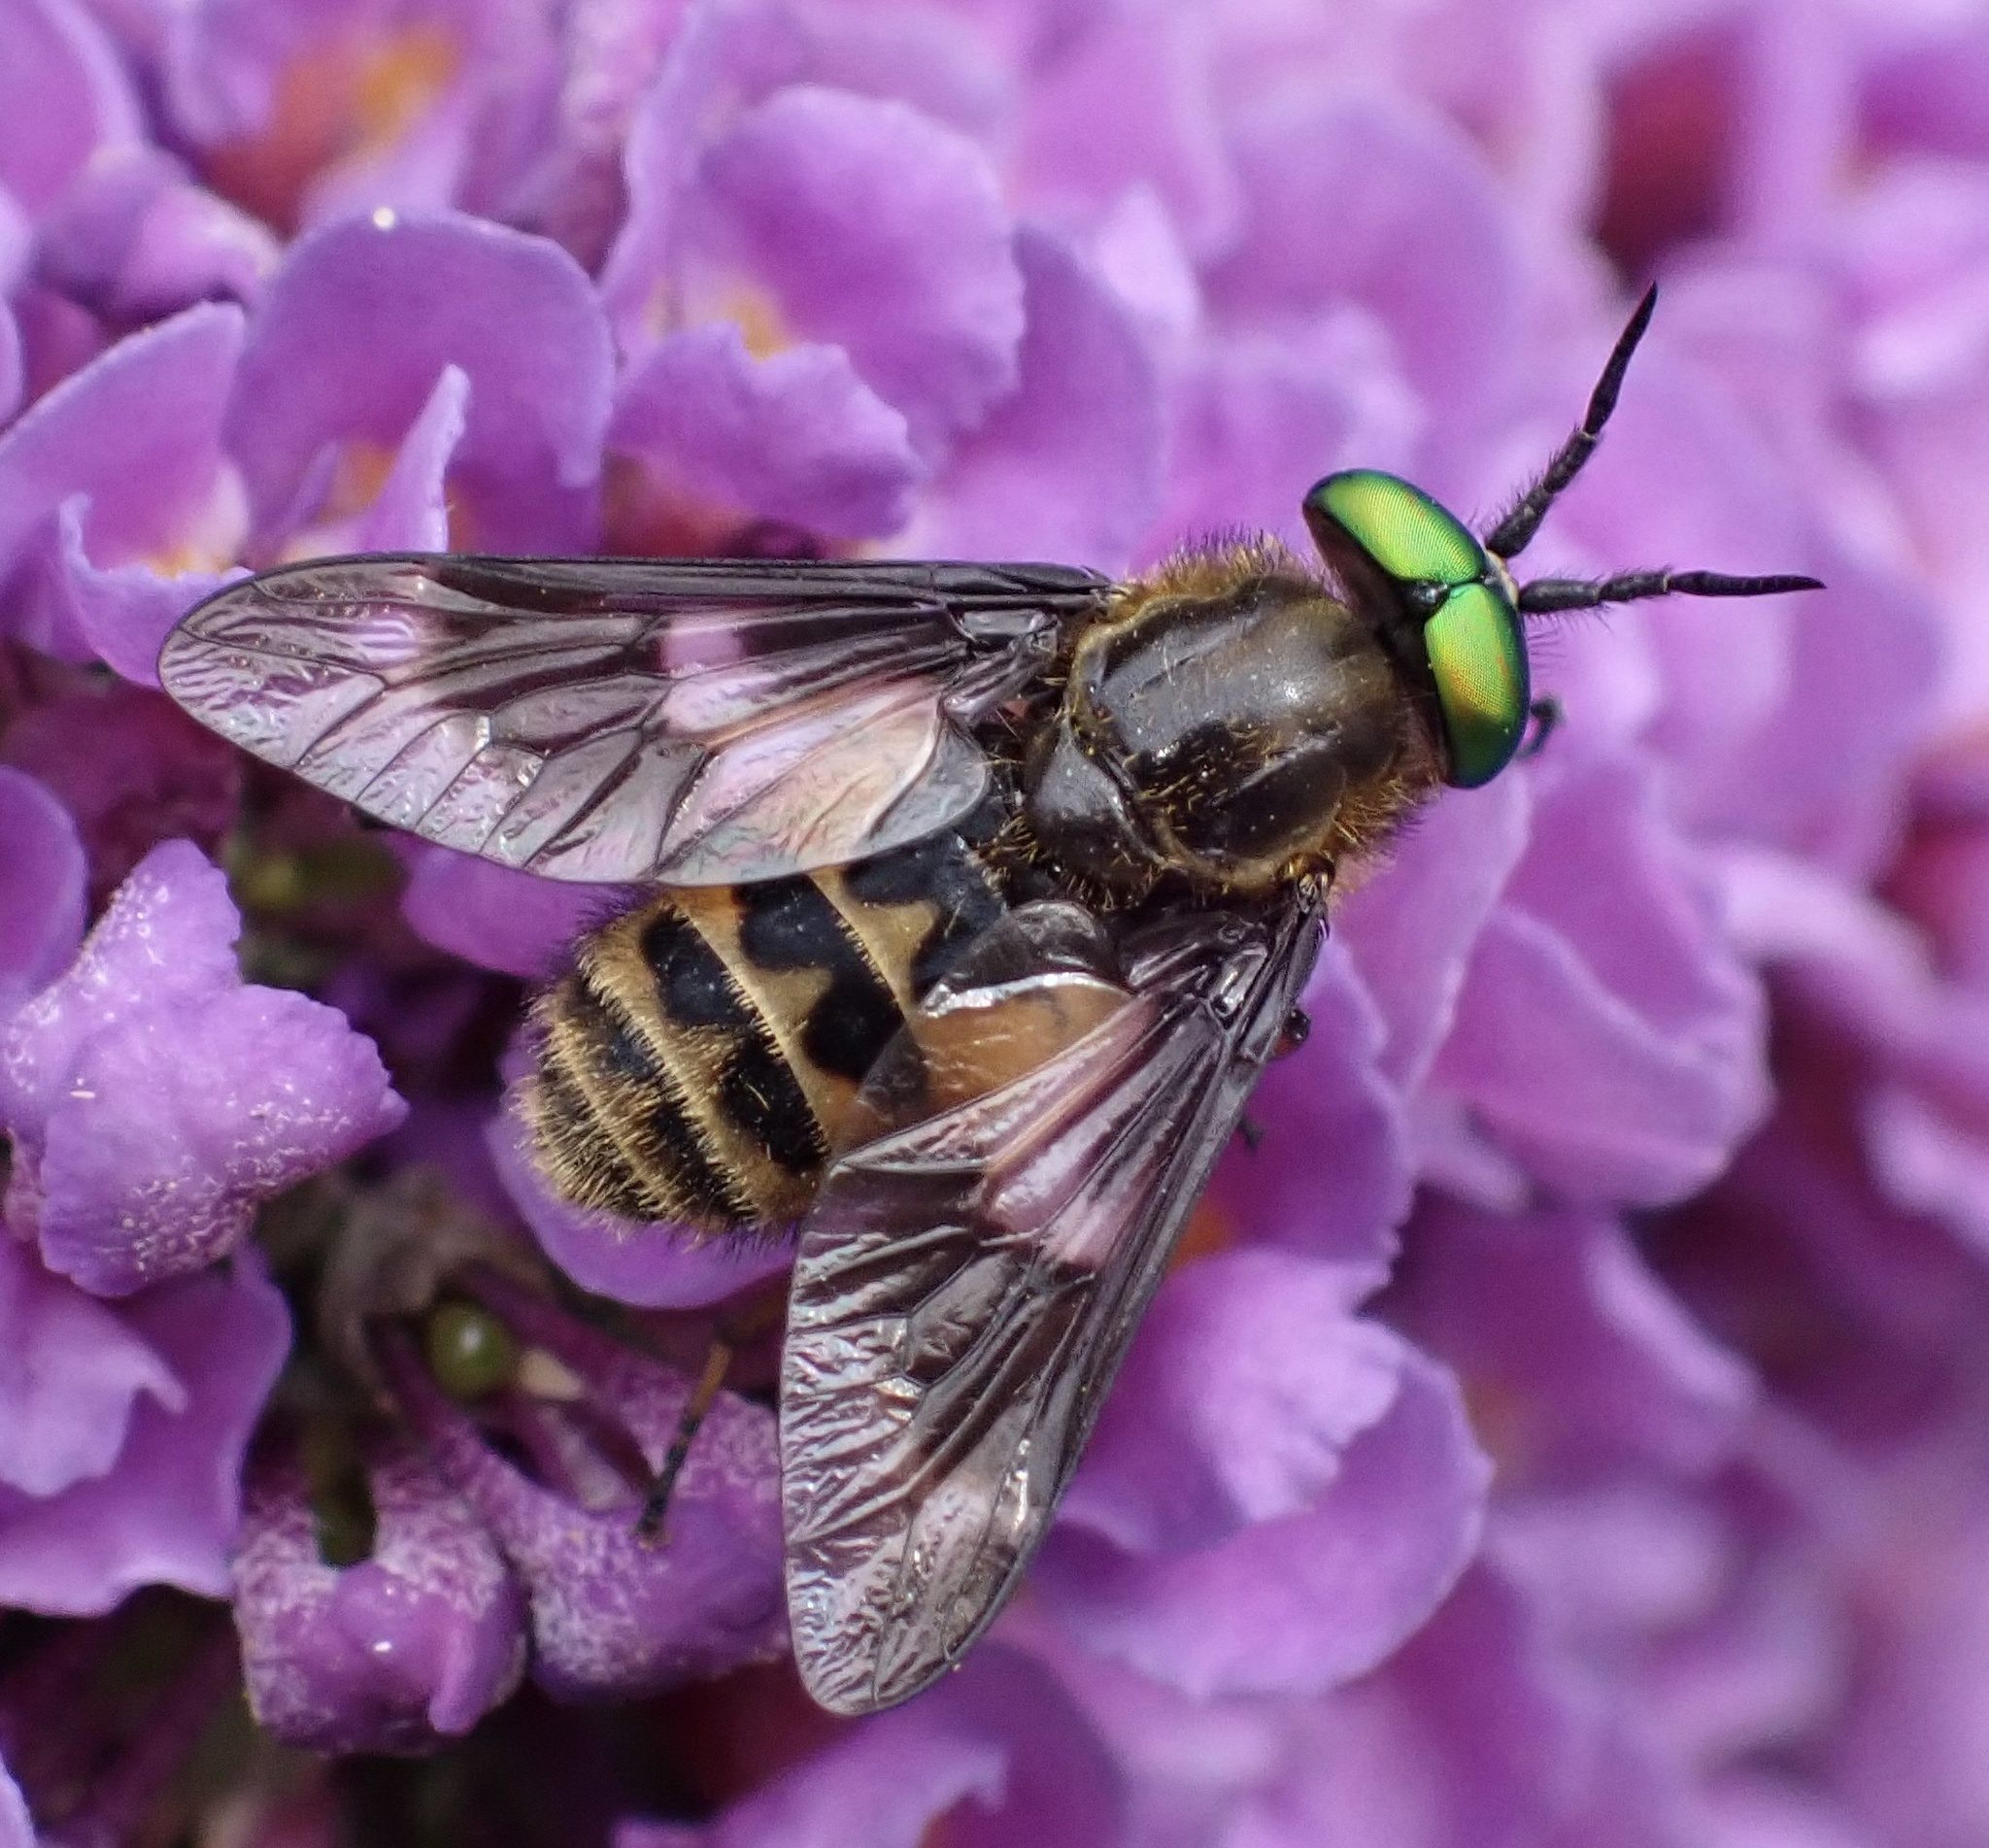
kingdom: Animalia
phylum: Arthropoda
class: Insecta
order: Diptera
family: Tabanidae
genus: Chrysops
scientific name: Chrysops relictus
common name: Twin-lobed deerfly
